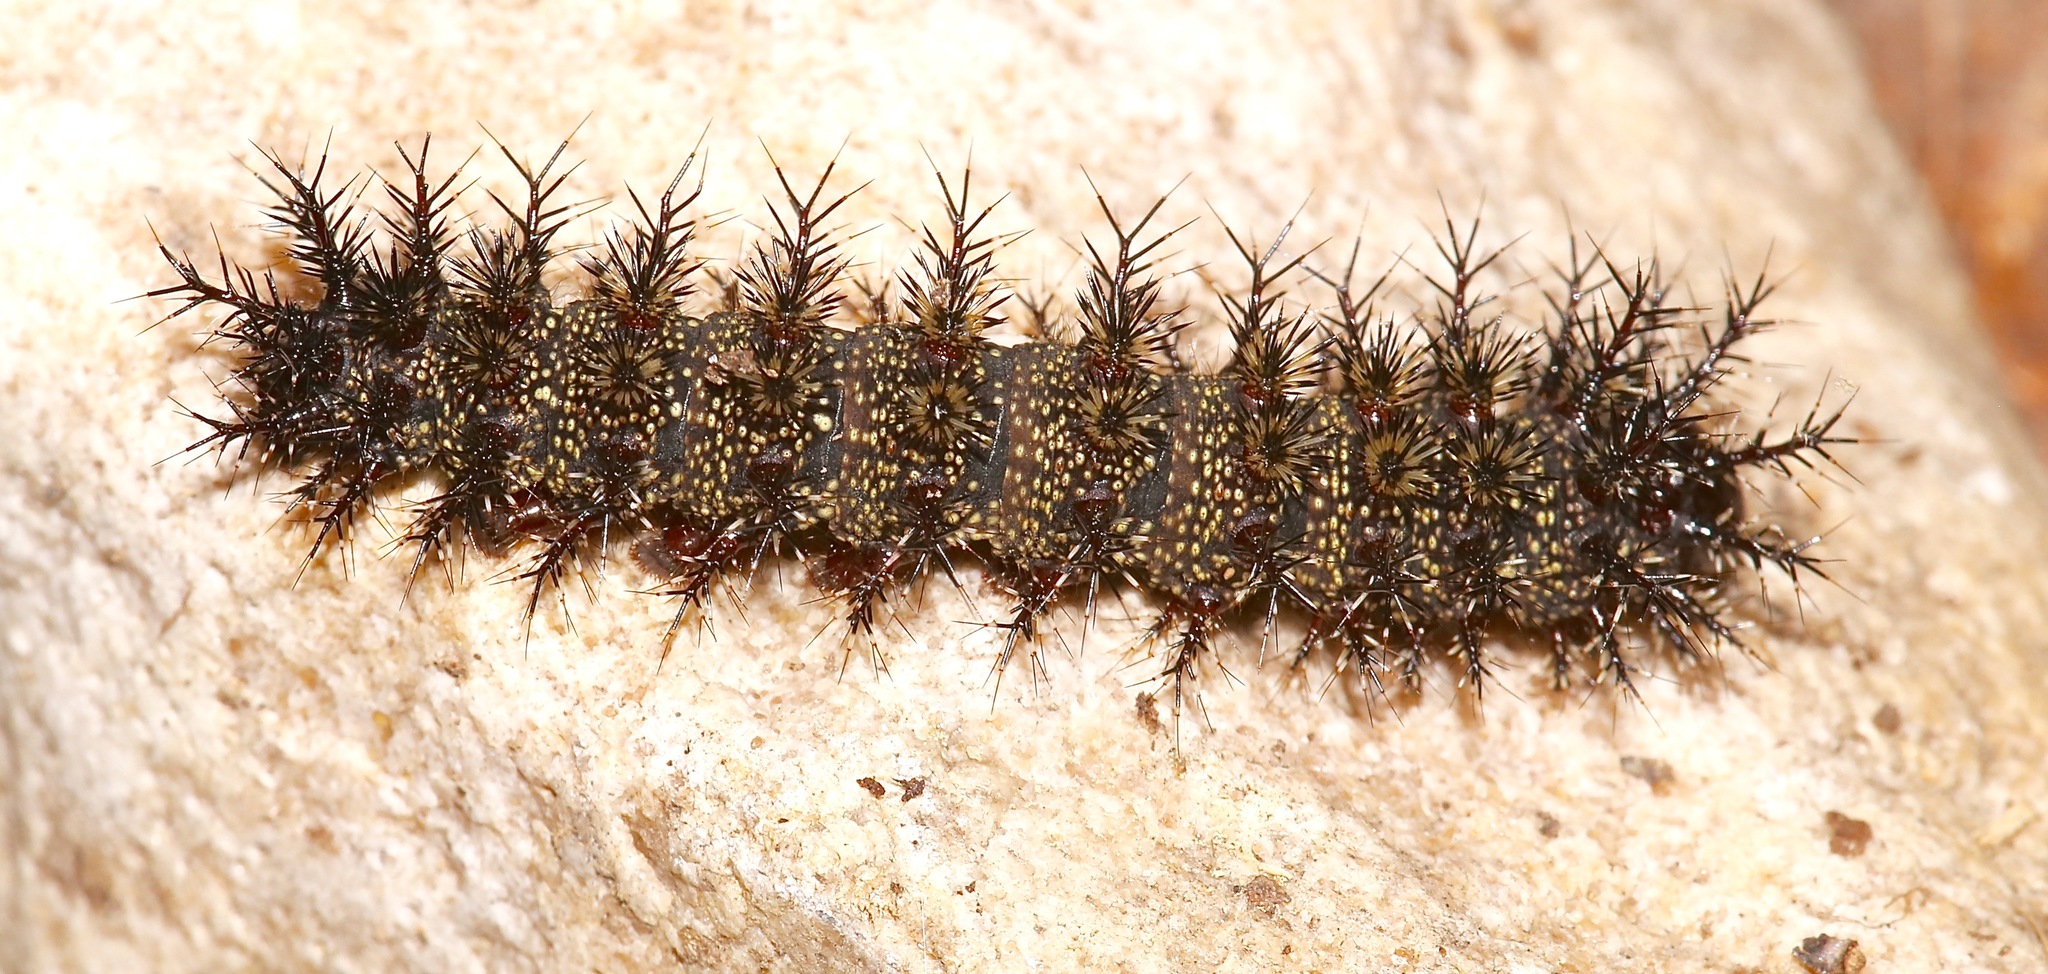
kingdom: Animalia
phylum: Arthropoda
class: Insecta
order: Lepidoptera
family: Saturniidae
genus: Hemileuca
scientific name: Hemileuca maia
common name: Eastern buckmoth
